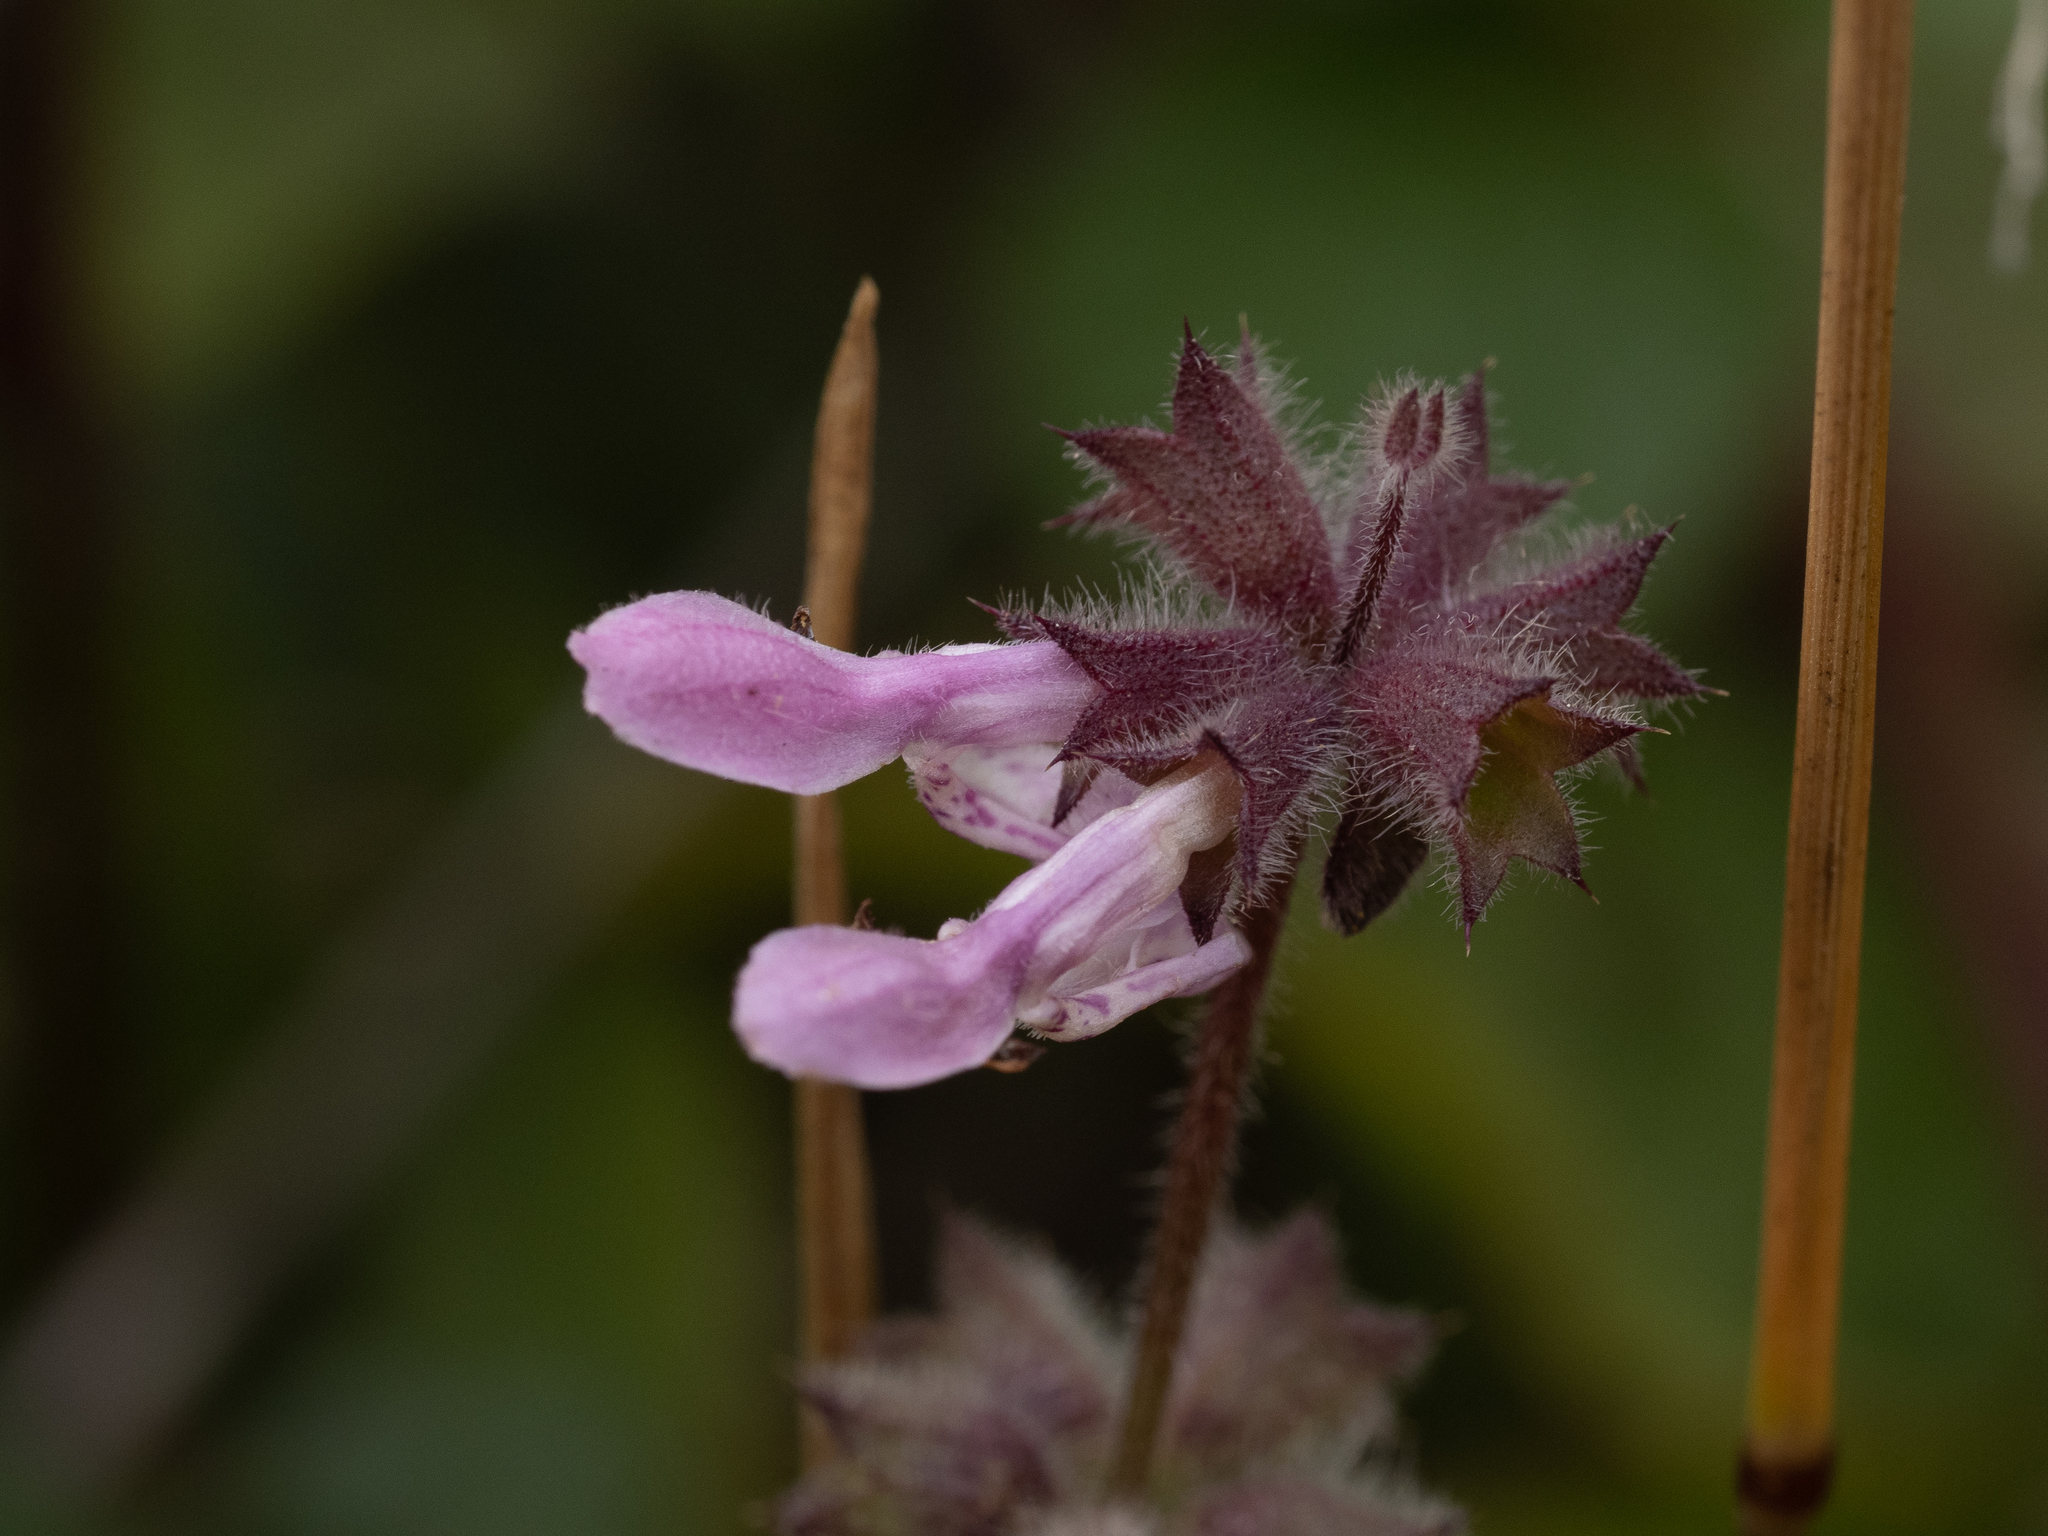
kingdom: Plantae
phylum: Tracheophyta
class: Magnoliopsida
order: Lamiales
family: Lamiaceae
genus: Stachys
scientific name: Stachys rigida
